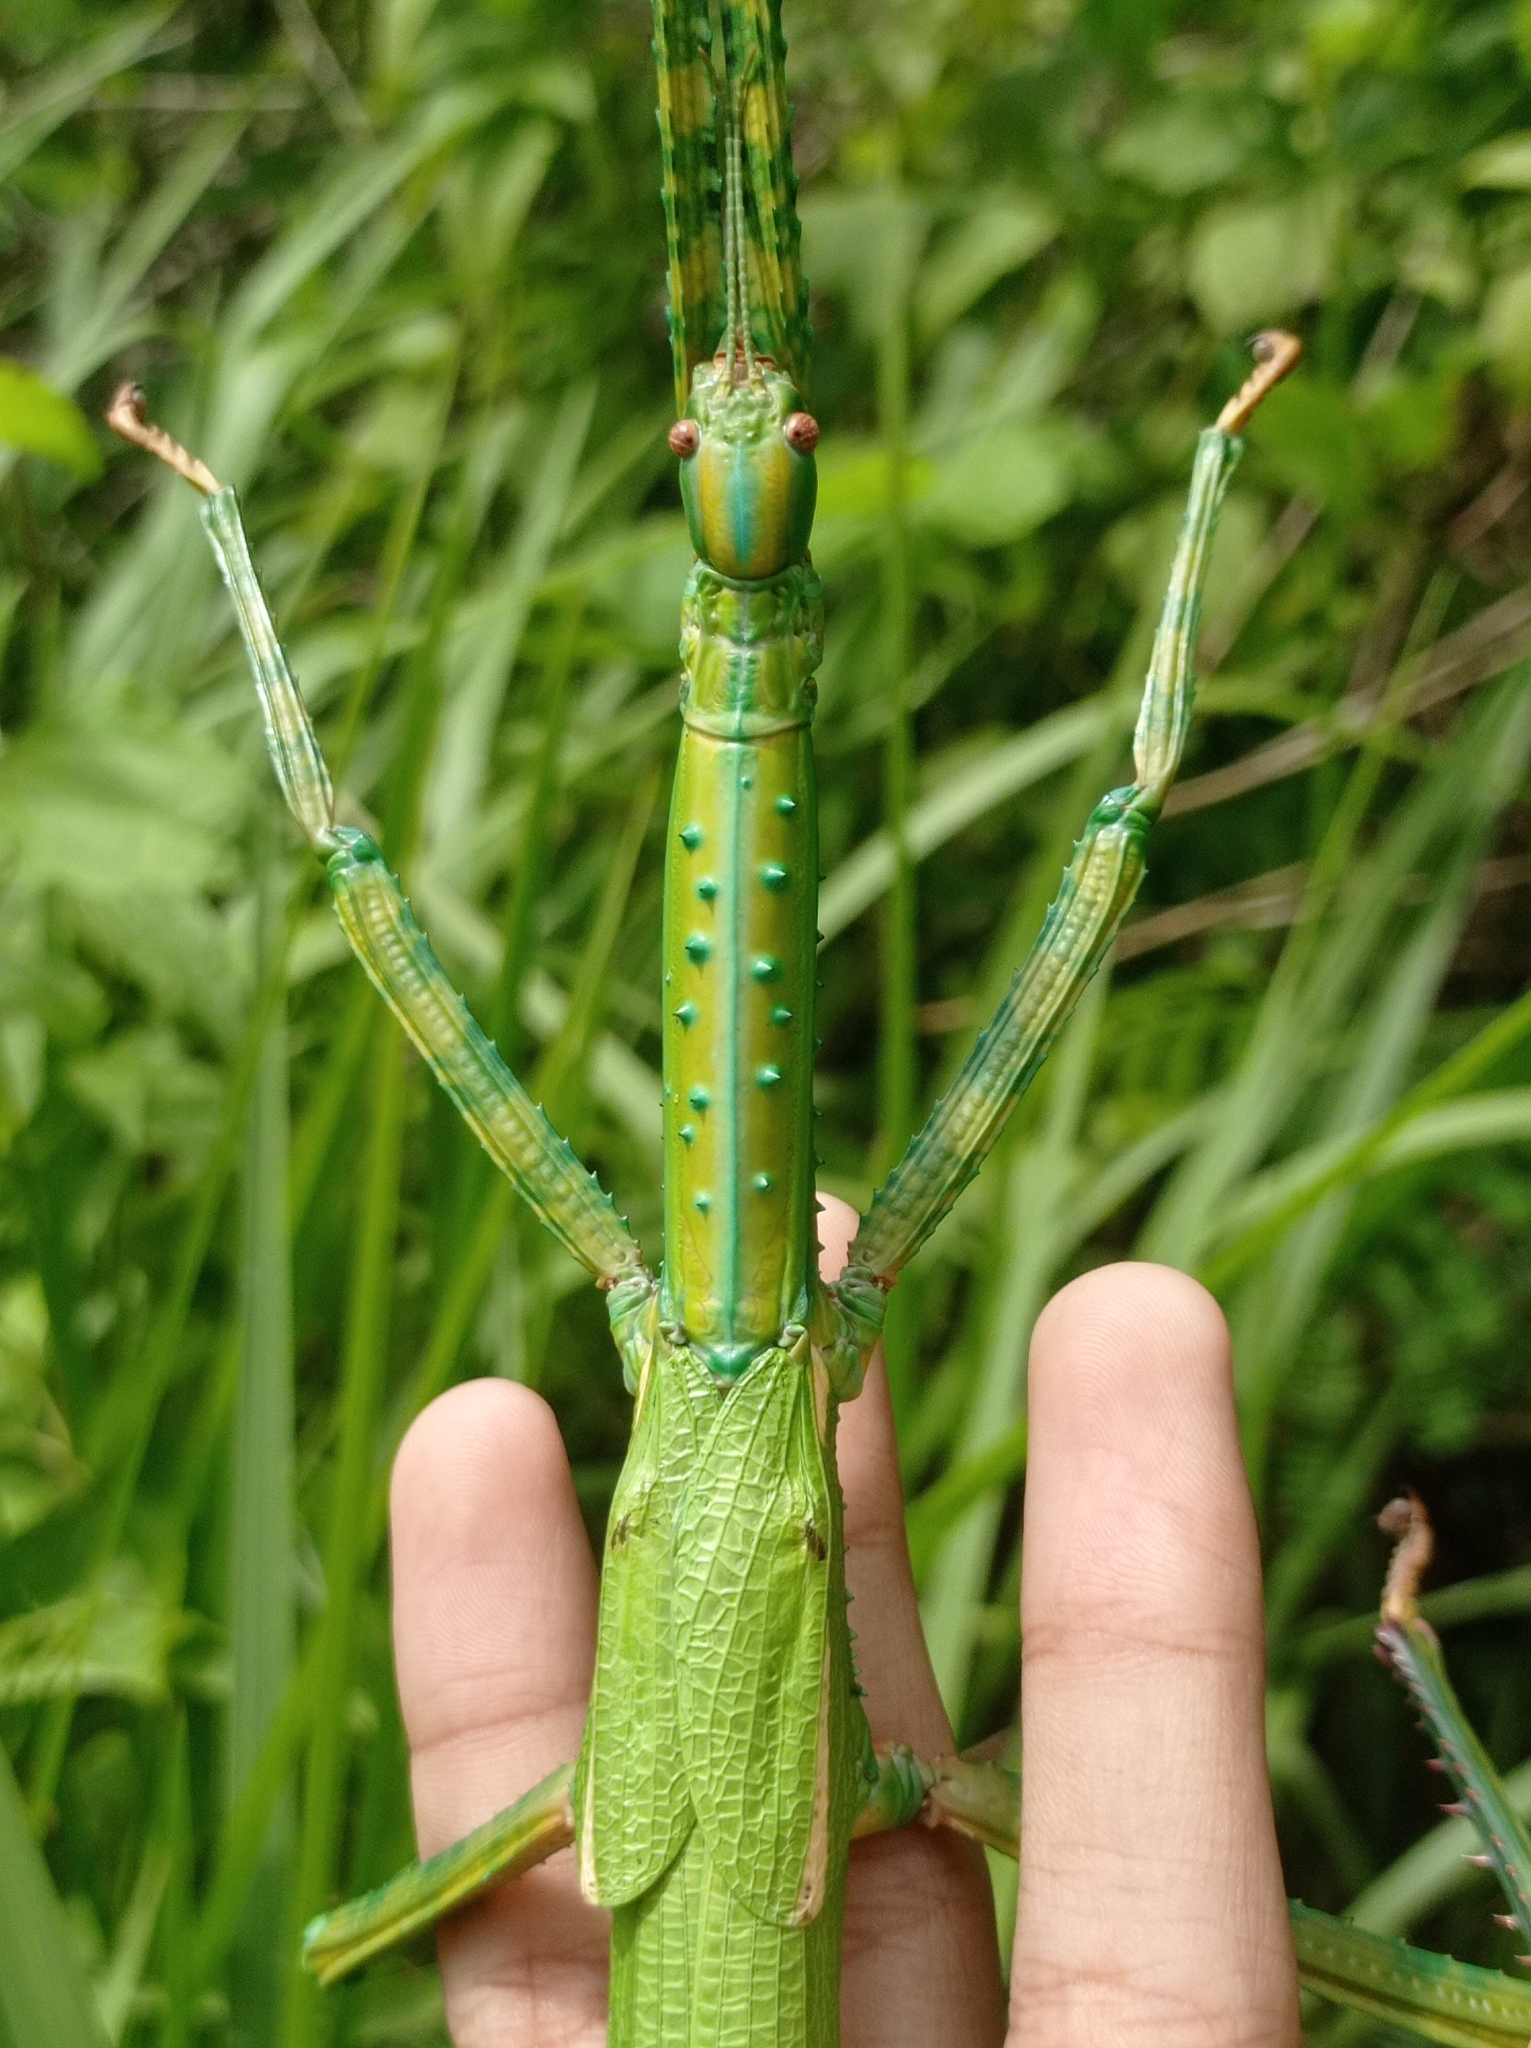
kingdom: Animalia
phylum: Arthropoda
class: Insecta
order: Phasmida
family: Phasmatidae
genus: Eurycnema
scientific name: Eurycnema versirubra
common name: Red-winged green giant stick-insect
